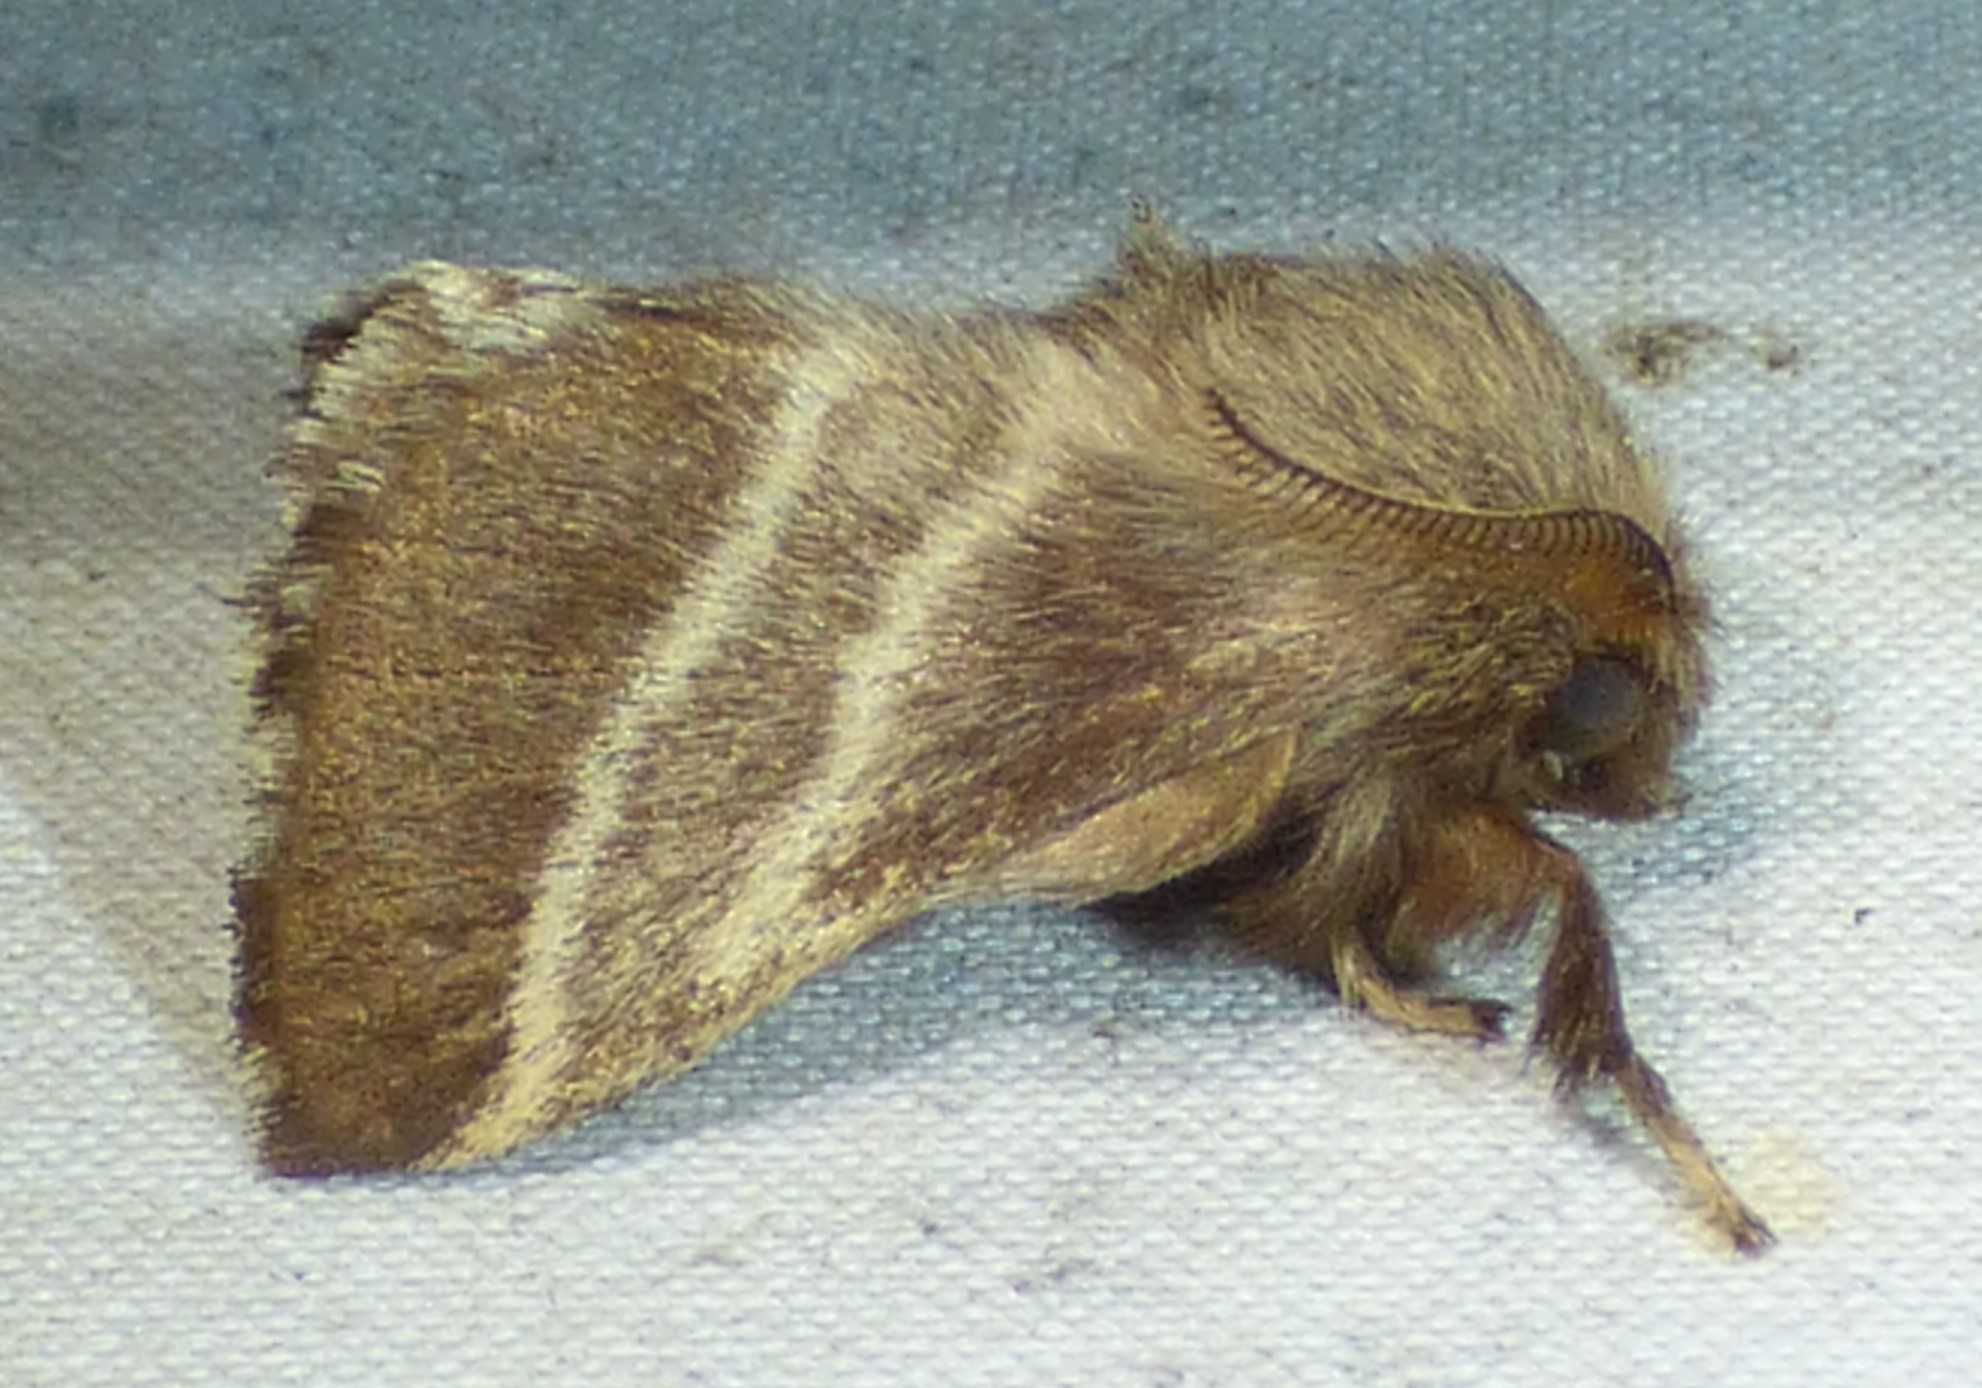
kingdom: Animalia
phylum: Arthropoda
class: Insecta
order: Lepidoptera
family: Lasiocampidae
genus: Malacosoma
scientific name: Malacosoma americana
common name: Eastern tent caterpillar moth
